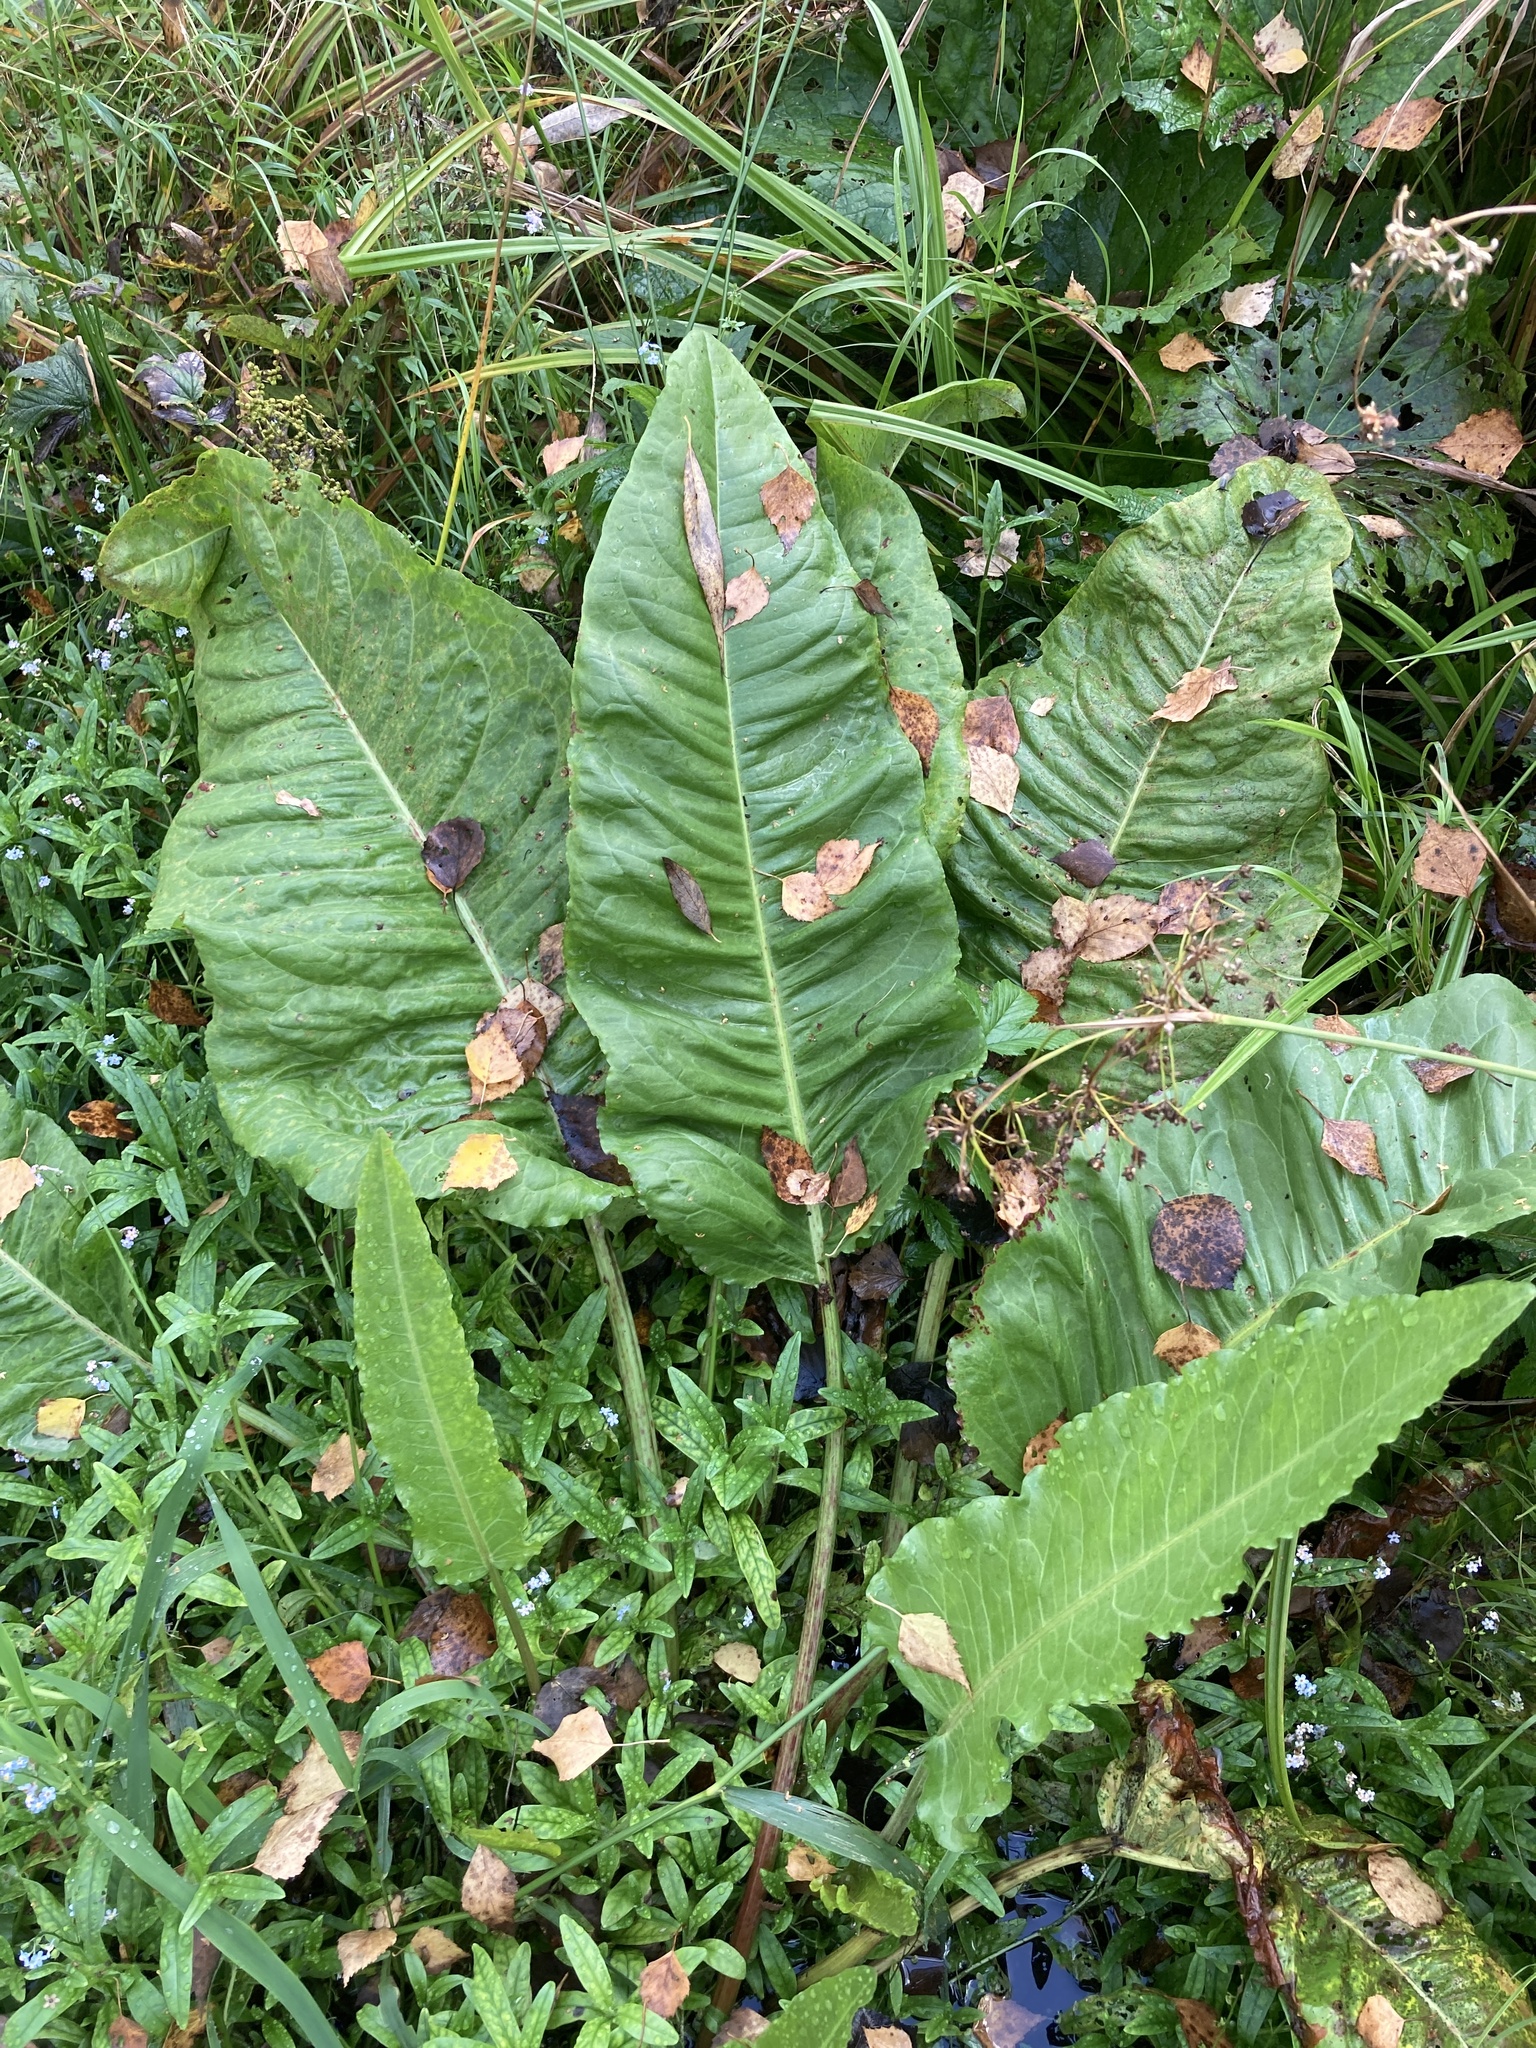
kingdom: Plantae
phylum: Tracheophyta
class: Magnoliopsida
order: Caryophyllales
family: Polygonaceae
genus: Rumex
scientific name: Rumex aquaticus
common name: Scottish dock
